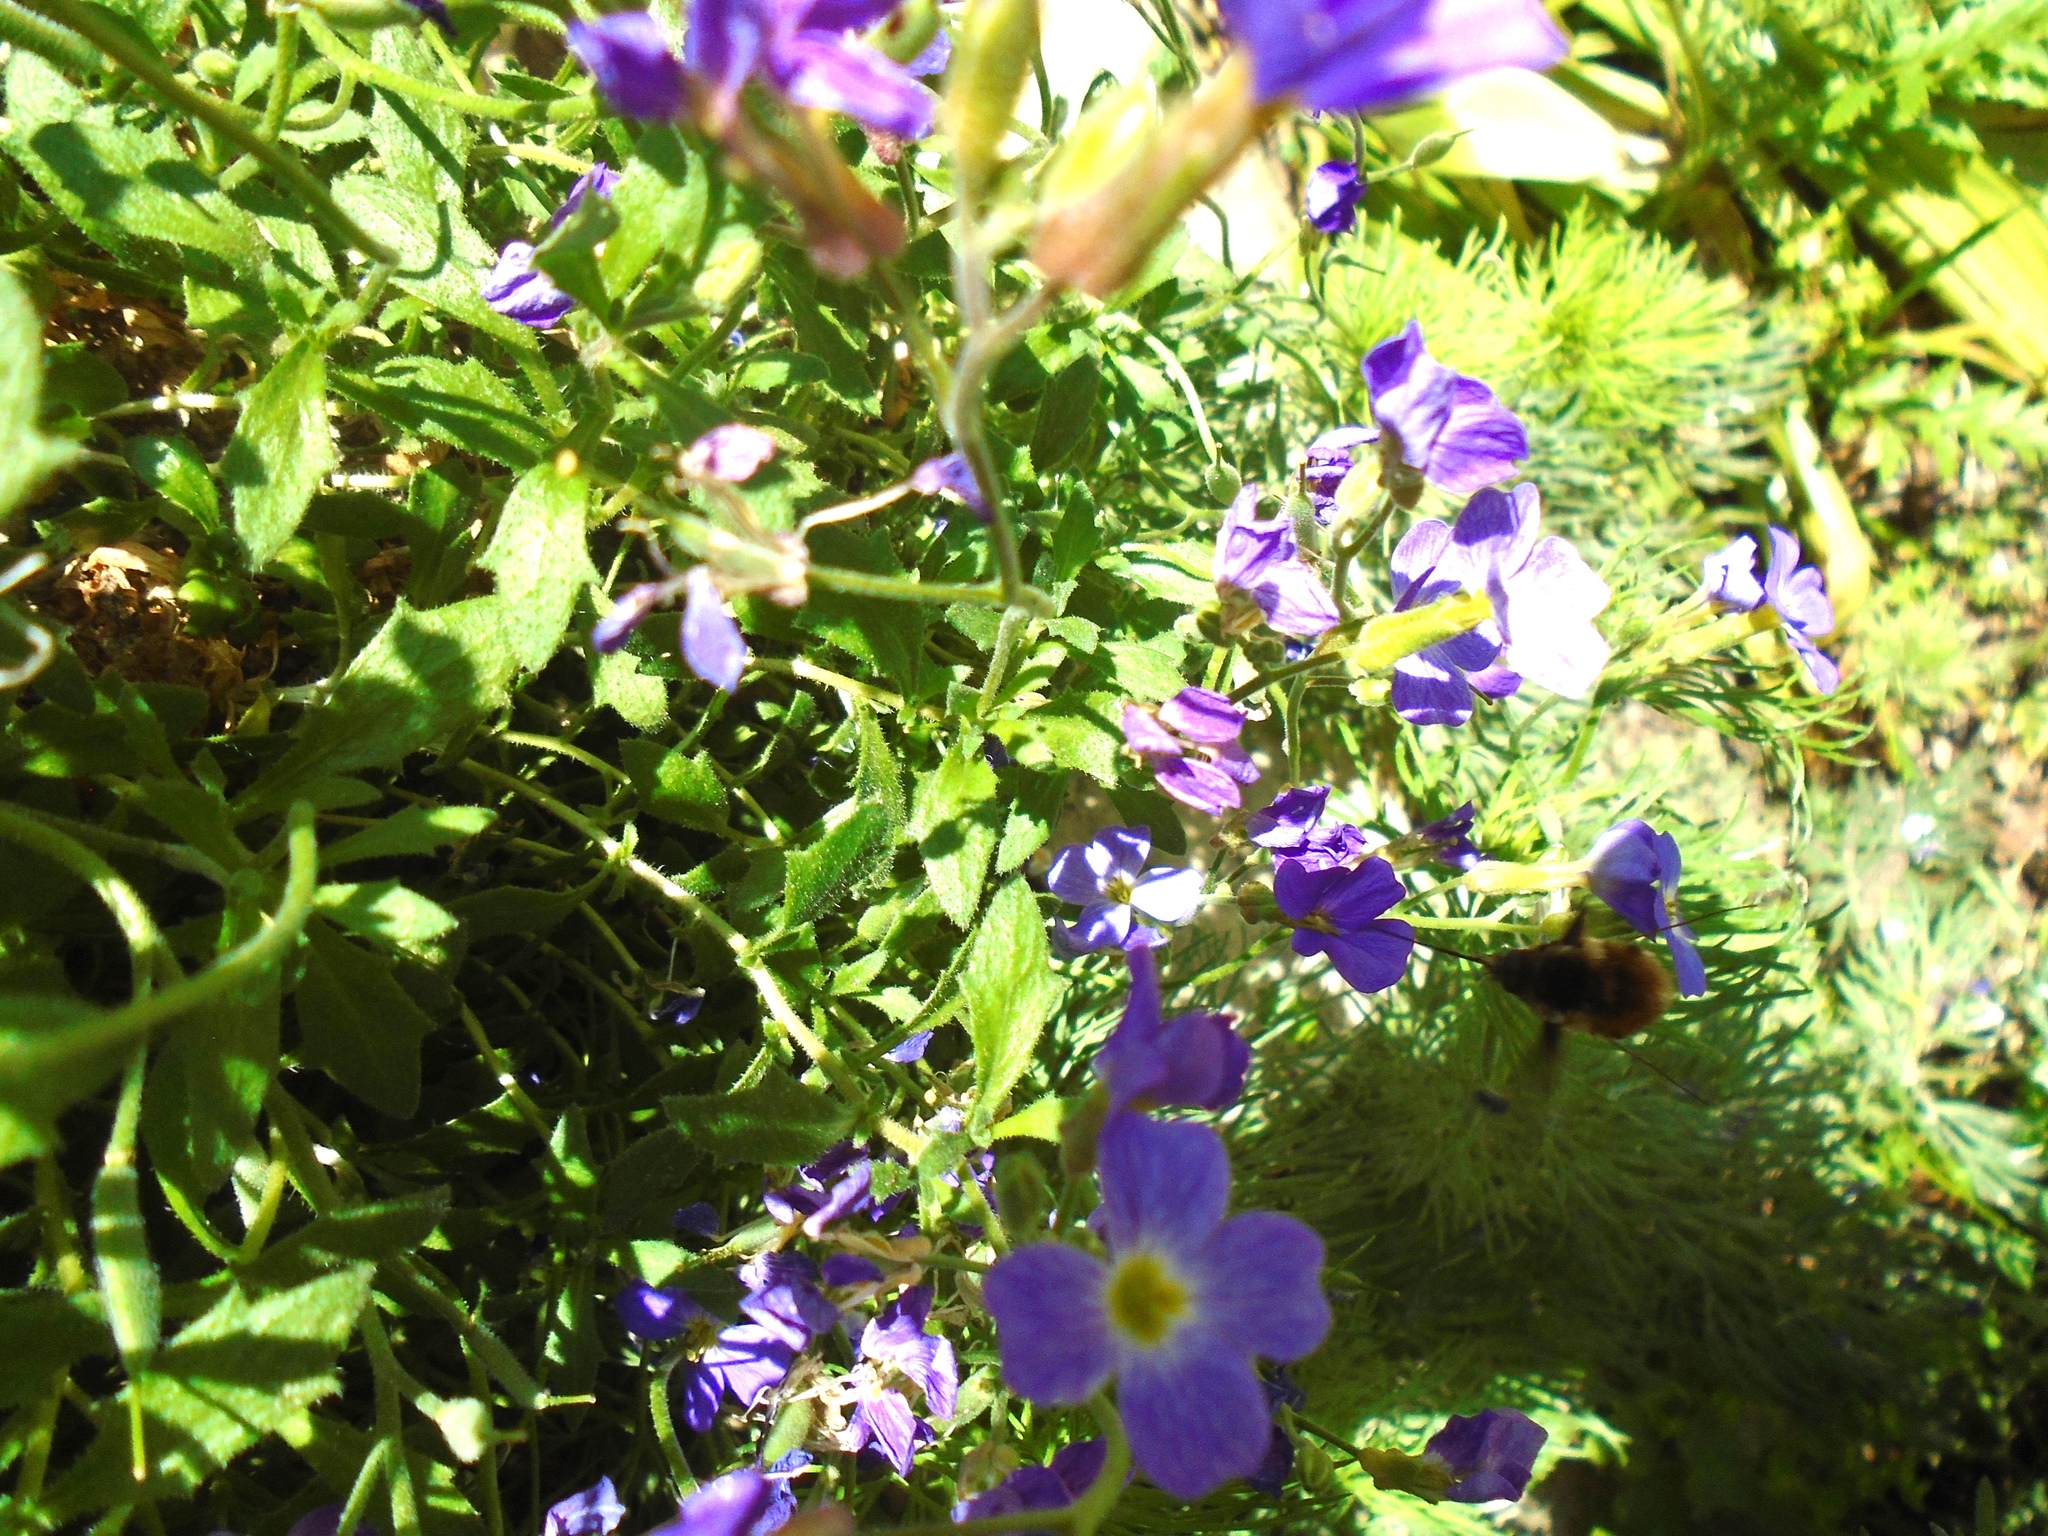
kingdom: Animalia
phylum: Arthropoda
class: Insecta
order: Diptera
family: Bombyliidae
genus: Bombylius
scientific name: Bombylius major
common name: Bee fly
